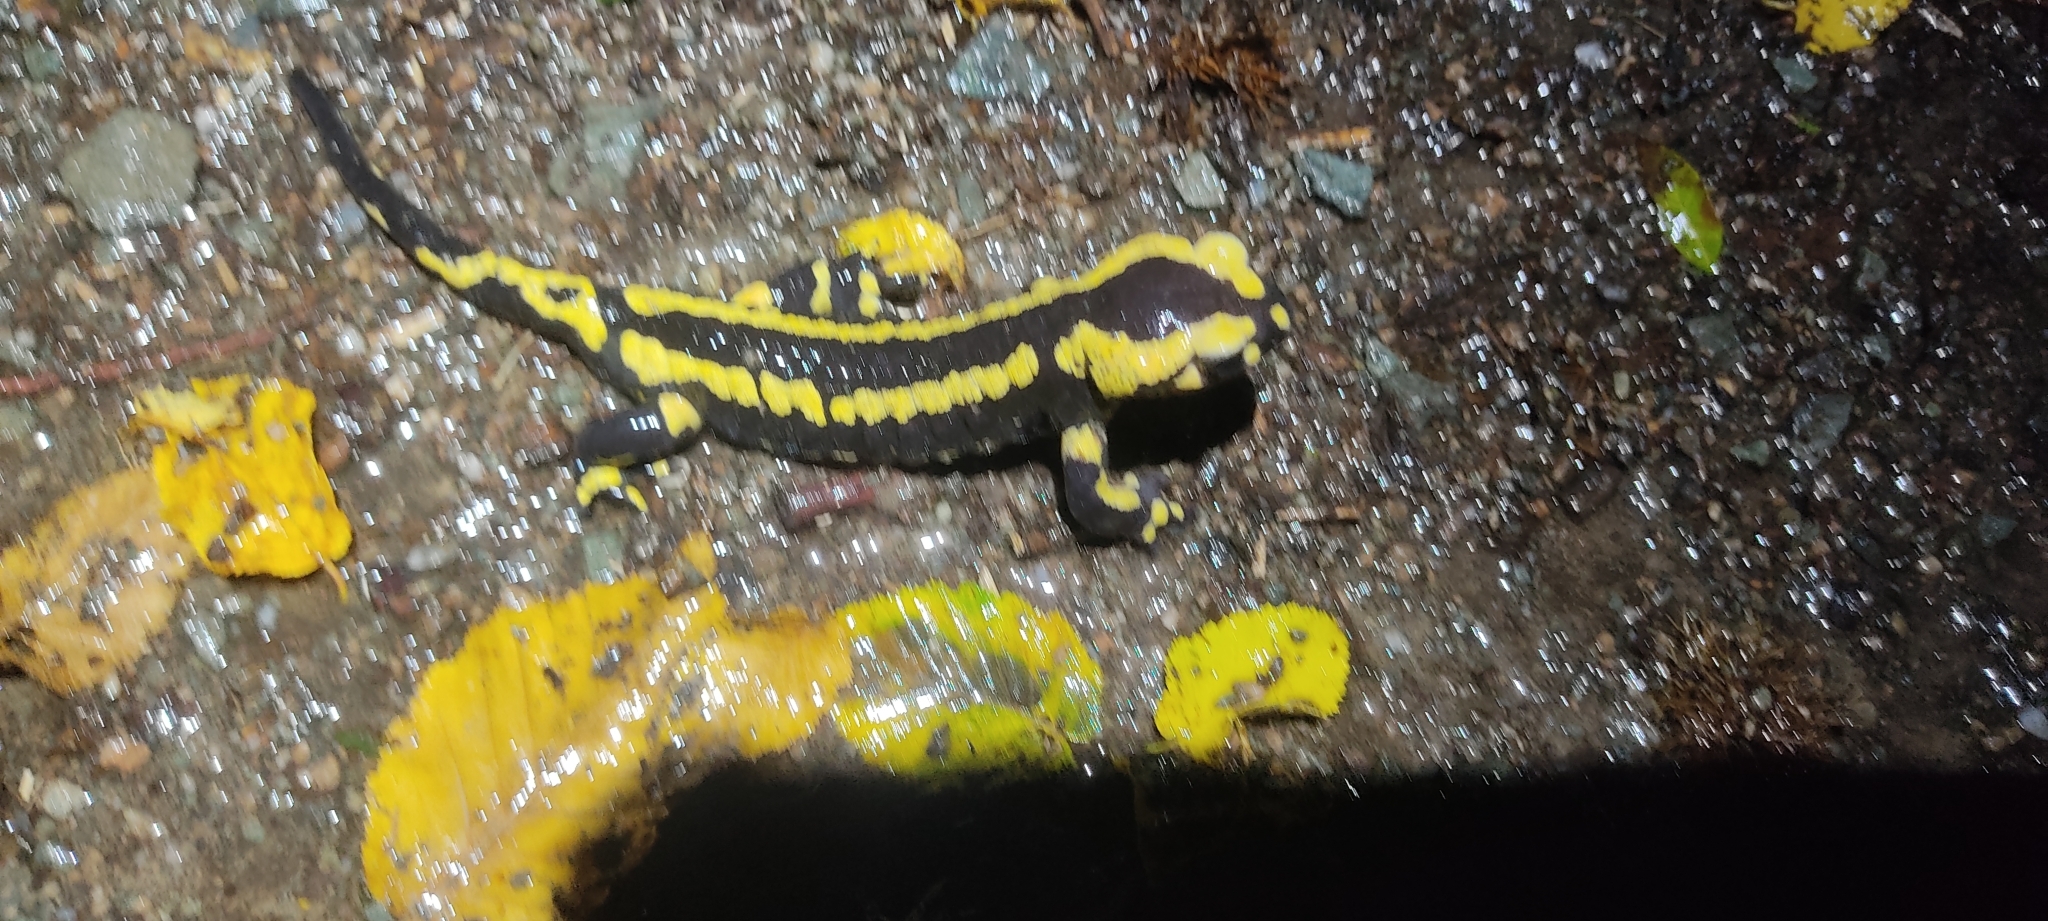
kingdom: Animalia
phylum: Chordata
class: Amphibia
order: Caudata
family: Salamandridae
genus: Salamandra
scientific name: Salamandra salamandra
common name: Fire salamander
